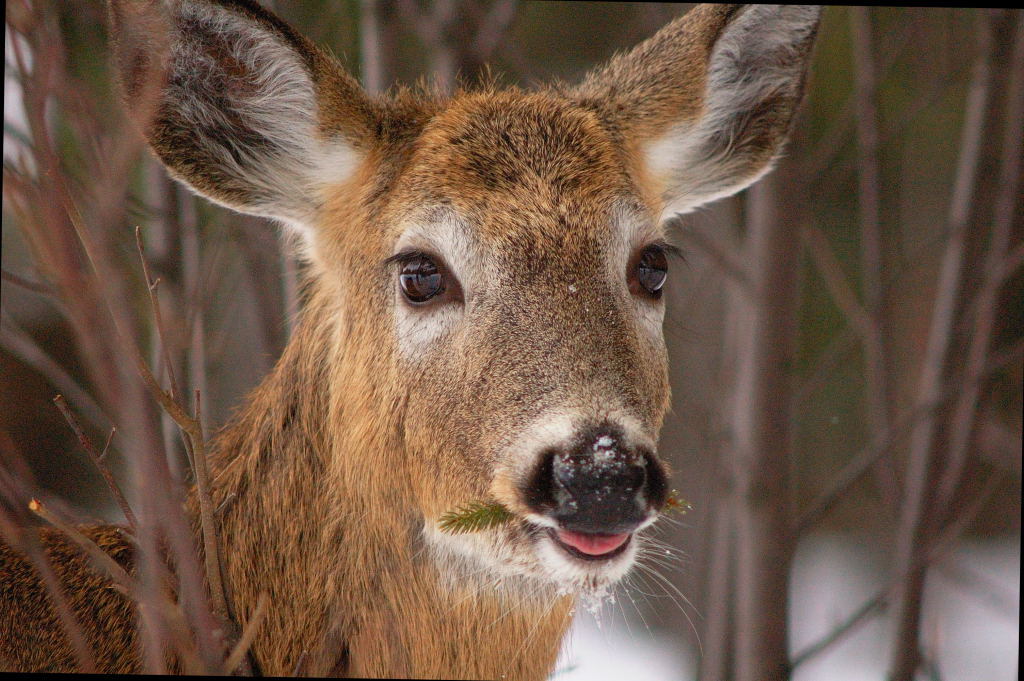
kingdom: Animalia
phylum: Chordata
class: Mammalia
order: Artiodactyla
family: Cervidae
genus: Odocoileus
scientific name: Odocoileus virginianus
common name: White-tailed deer
